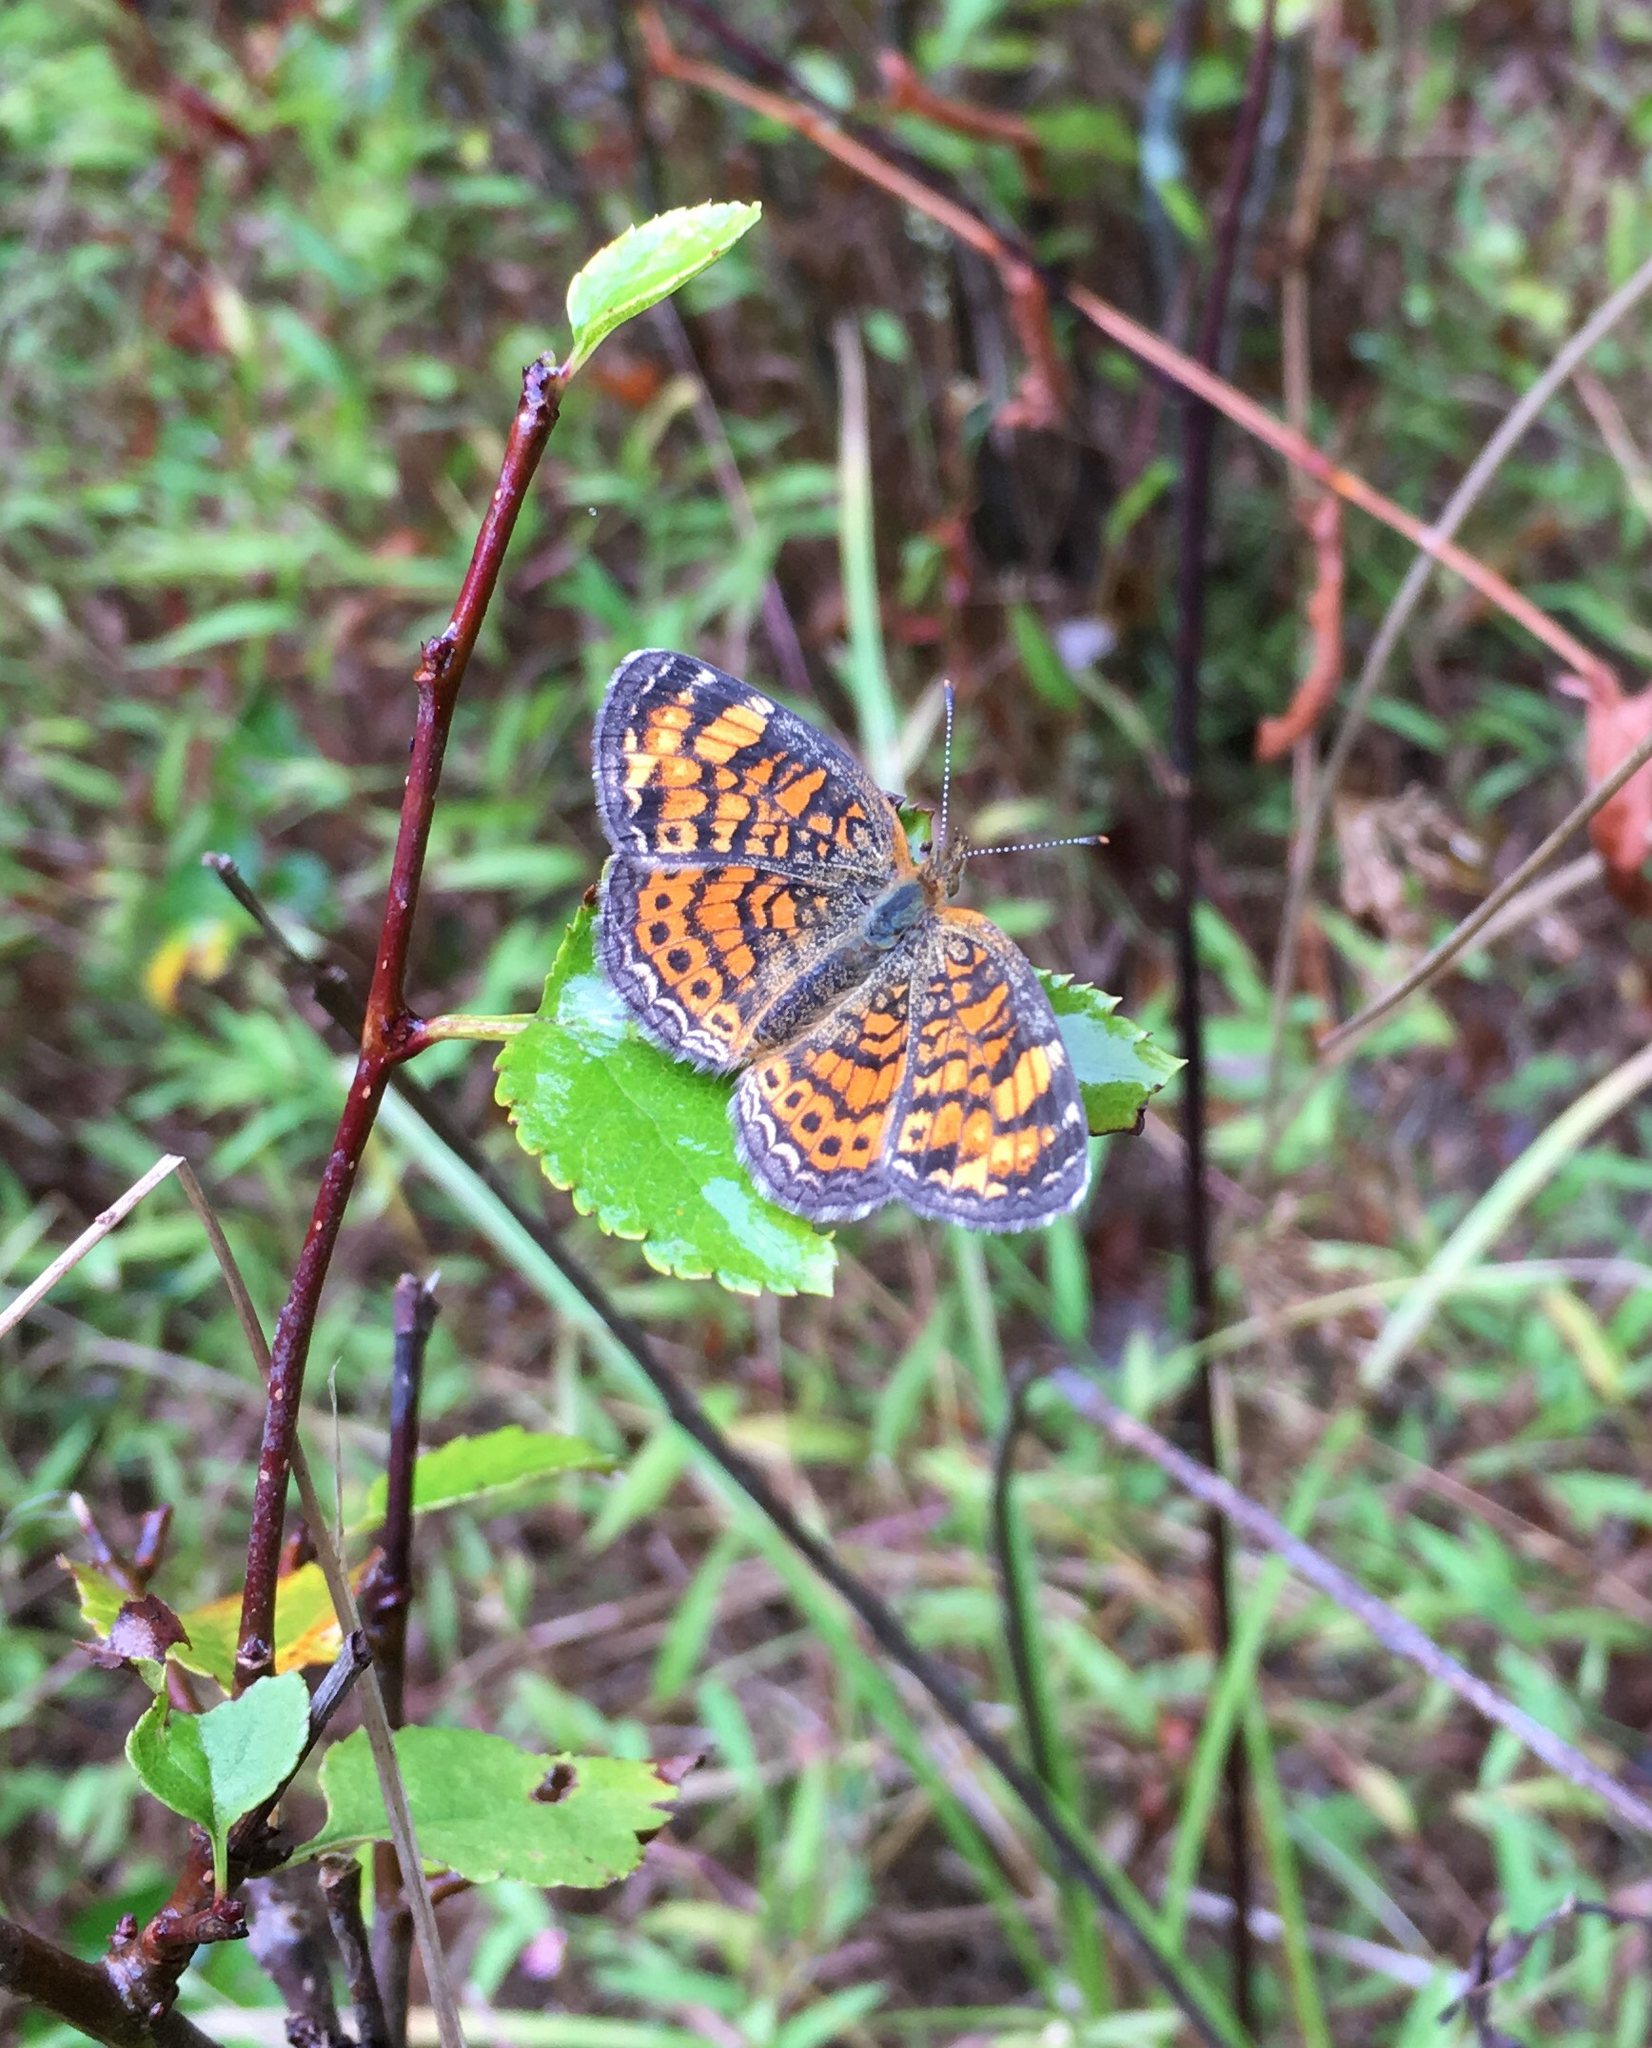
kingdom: Animalia
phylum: Arthropoda
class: Insecta
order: Lepidoptera
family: Nymphalidae
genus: Phyciodes
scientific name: Phyciodes tharos
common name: Pearl crescent
